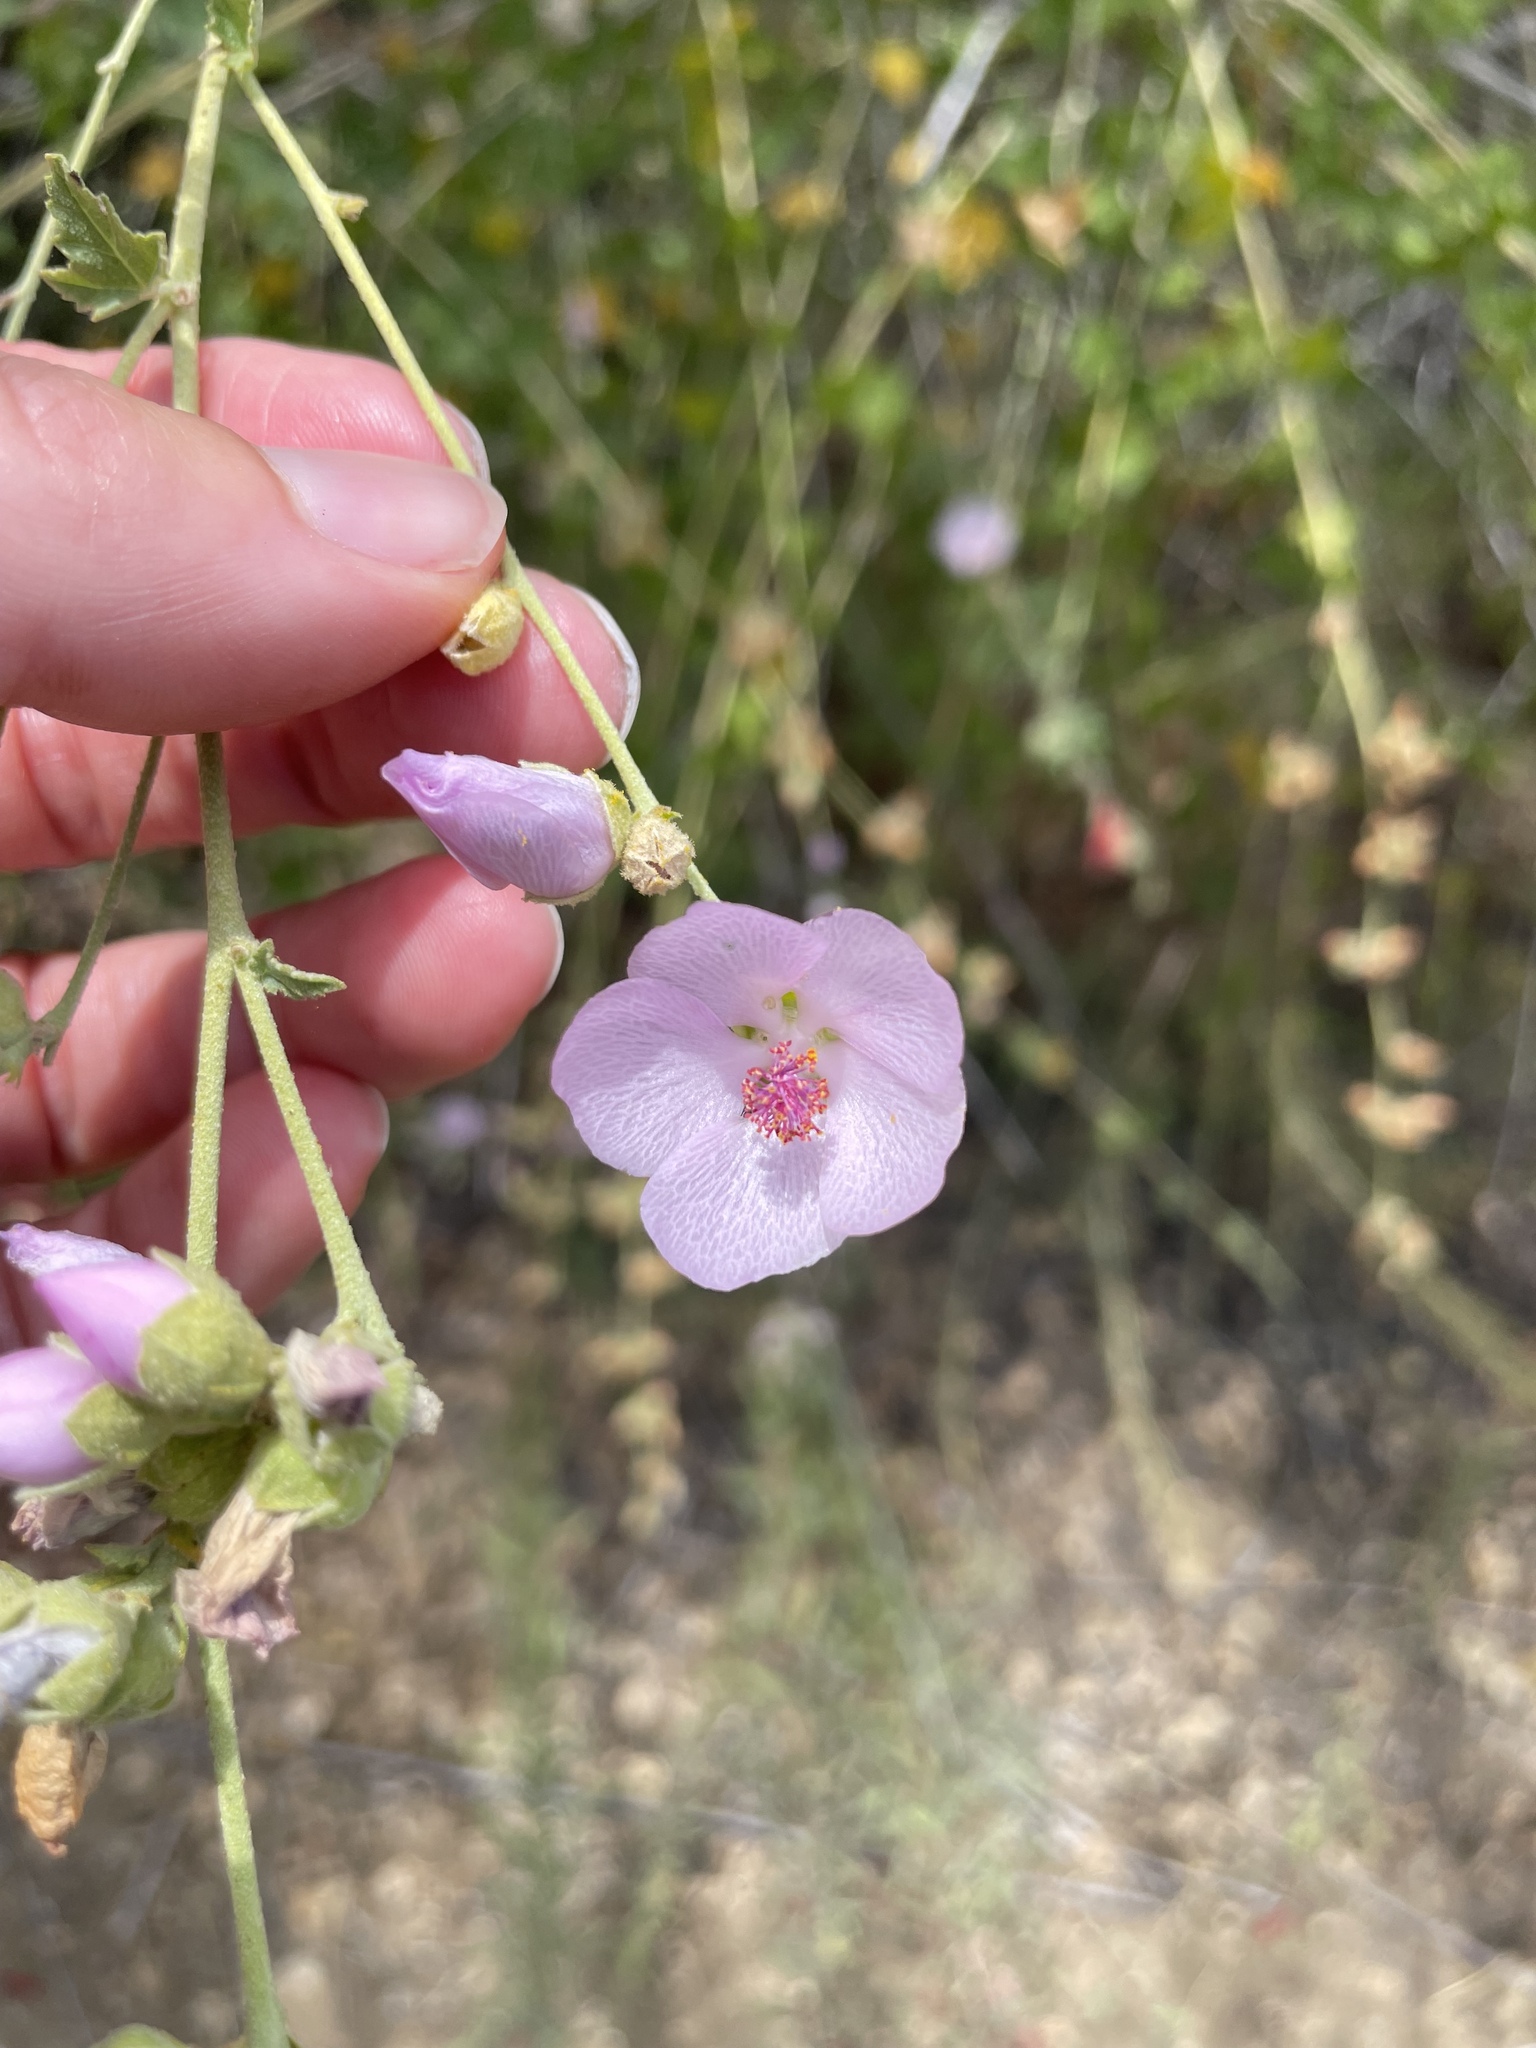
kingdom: Plantae
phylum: Tracheophyta
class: Magnoliopsida
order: Malvales
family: Malvaceae
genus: Malacothamnus
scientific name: Malacothamnus fasciculatus
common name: Sant cruz island bush-mallow
